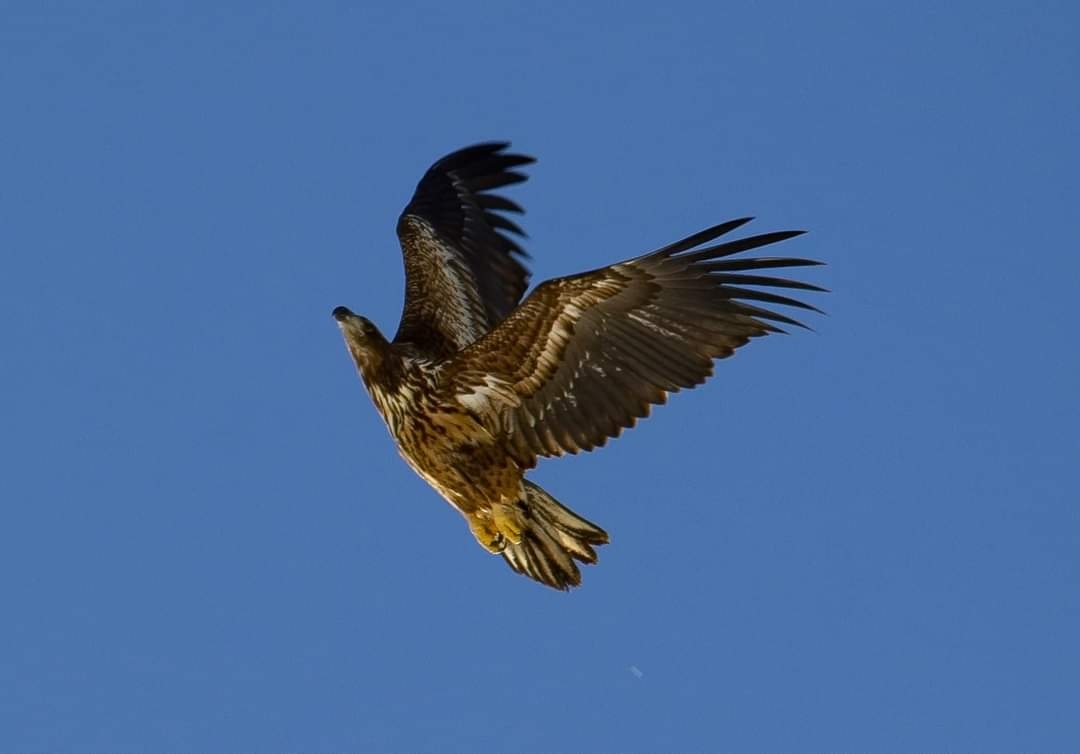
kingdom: Animalia
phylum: Chordata
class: Aves
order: Accipitriformes
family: Accipitridae
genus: Haliaeetus
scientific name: Haliaeetus albicilla
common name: White-tailed eagle
